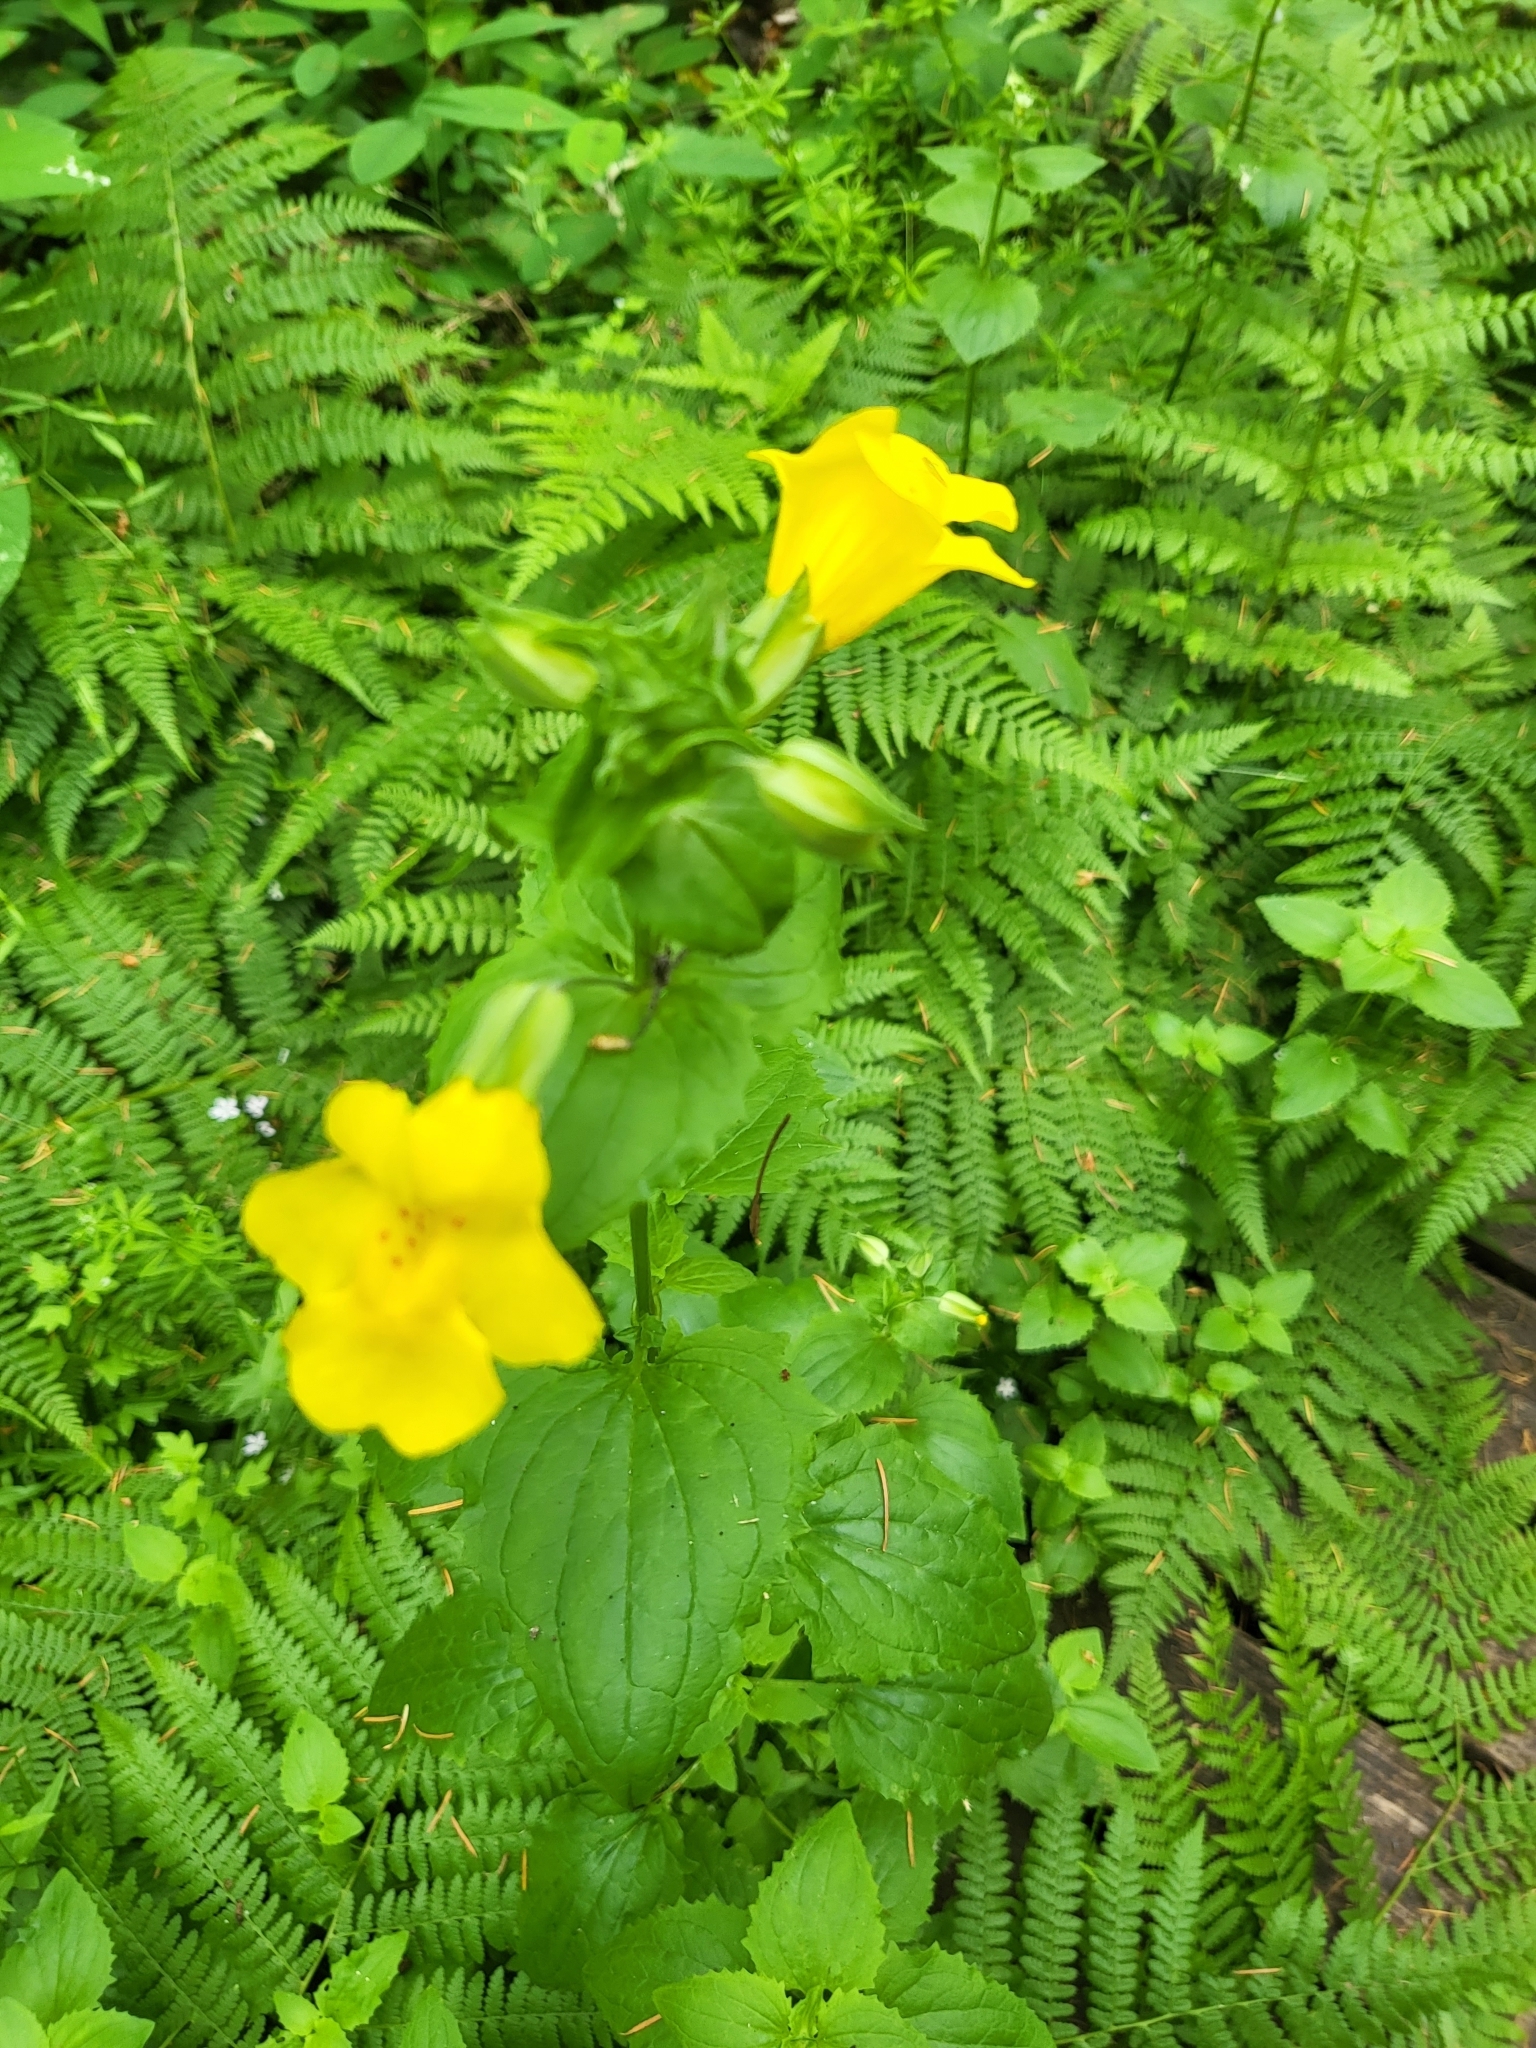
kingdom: Plantae
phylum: Tracheophyta
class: Magnoliopsida
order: Lamiales
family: Phrymaceae
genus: Erythranthe
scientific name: Erythranthe decora
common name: Mannered monkeyflower
